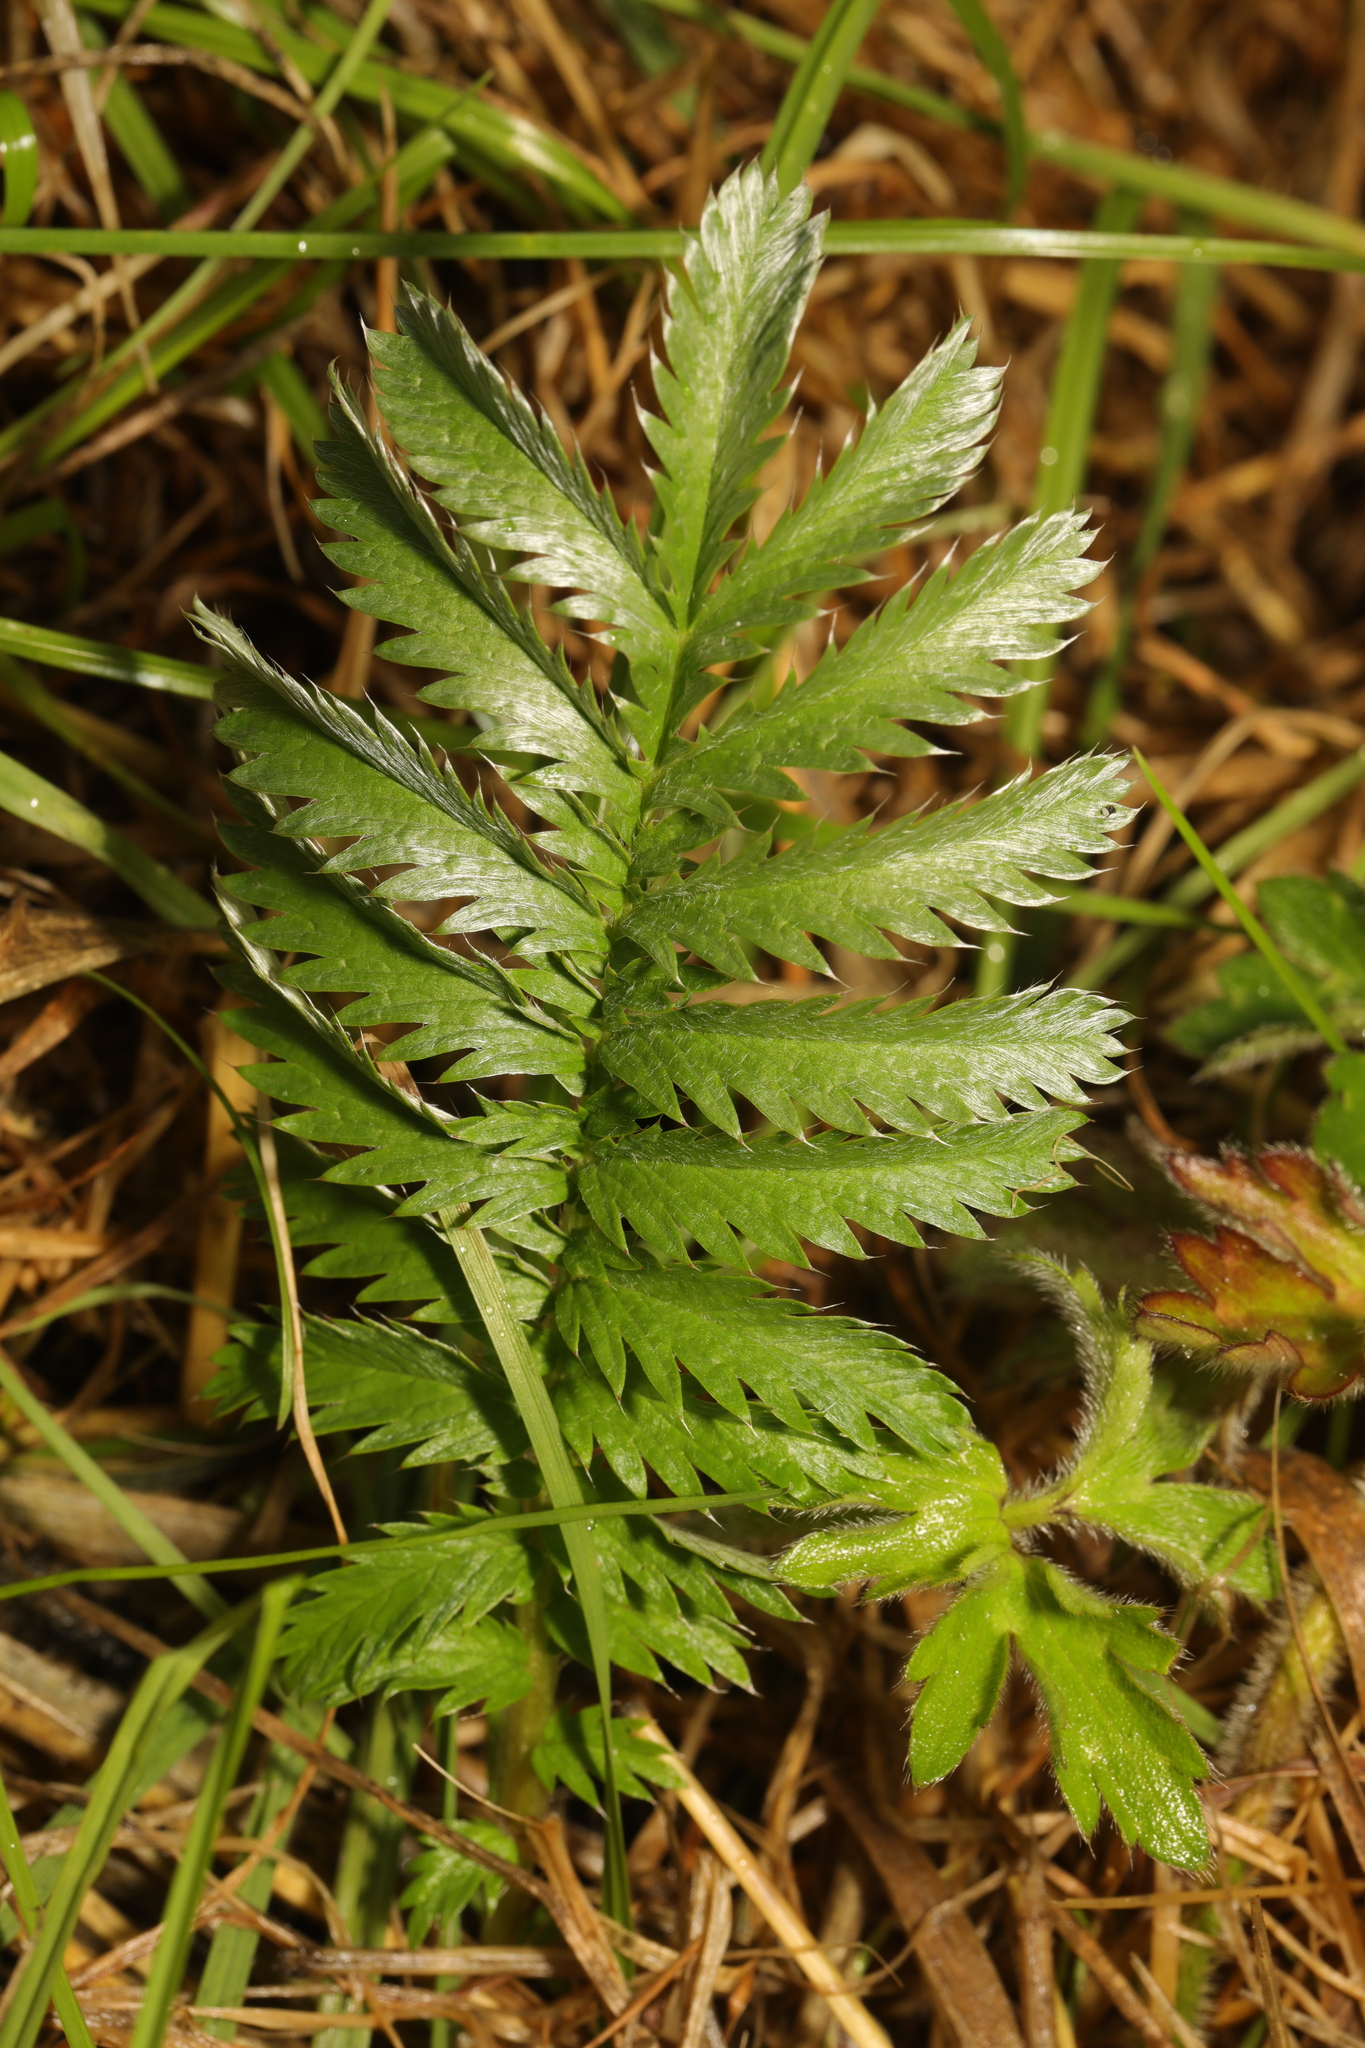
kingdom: Plantae
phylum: Tracheophyta
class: Magnoliopsida
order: Rosales
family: Rosaceae
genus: Argentina
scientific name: Argentina anserina
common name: Common silverweed
